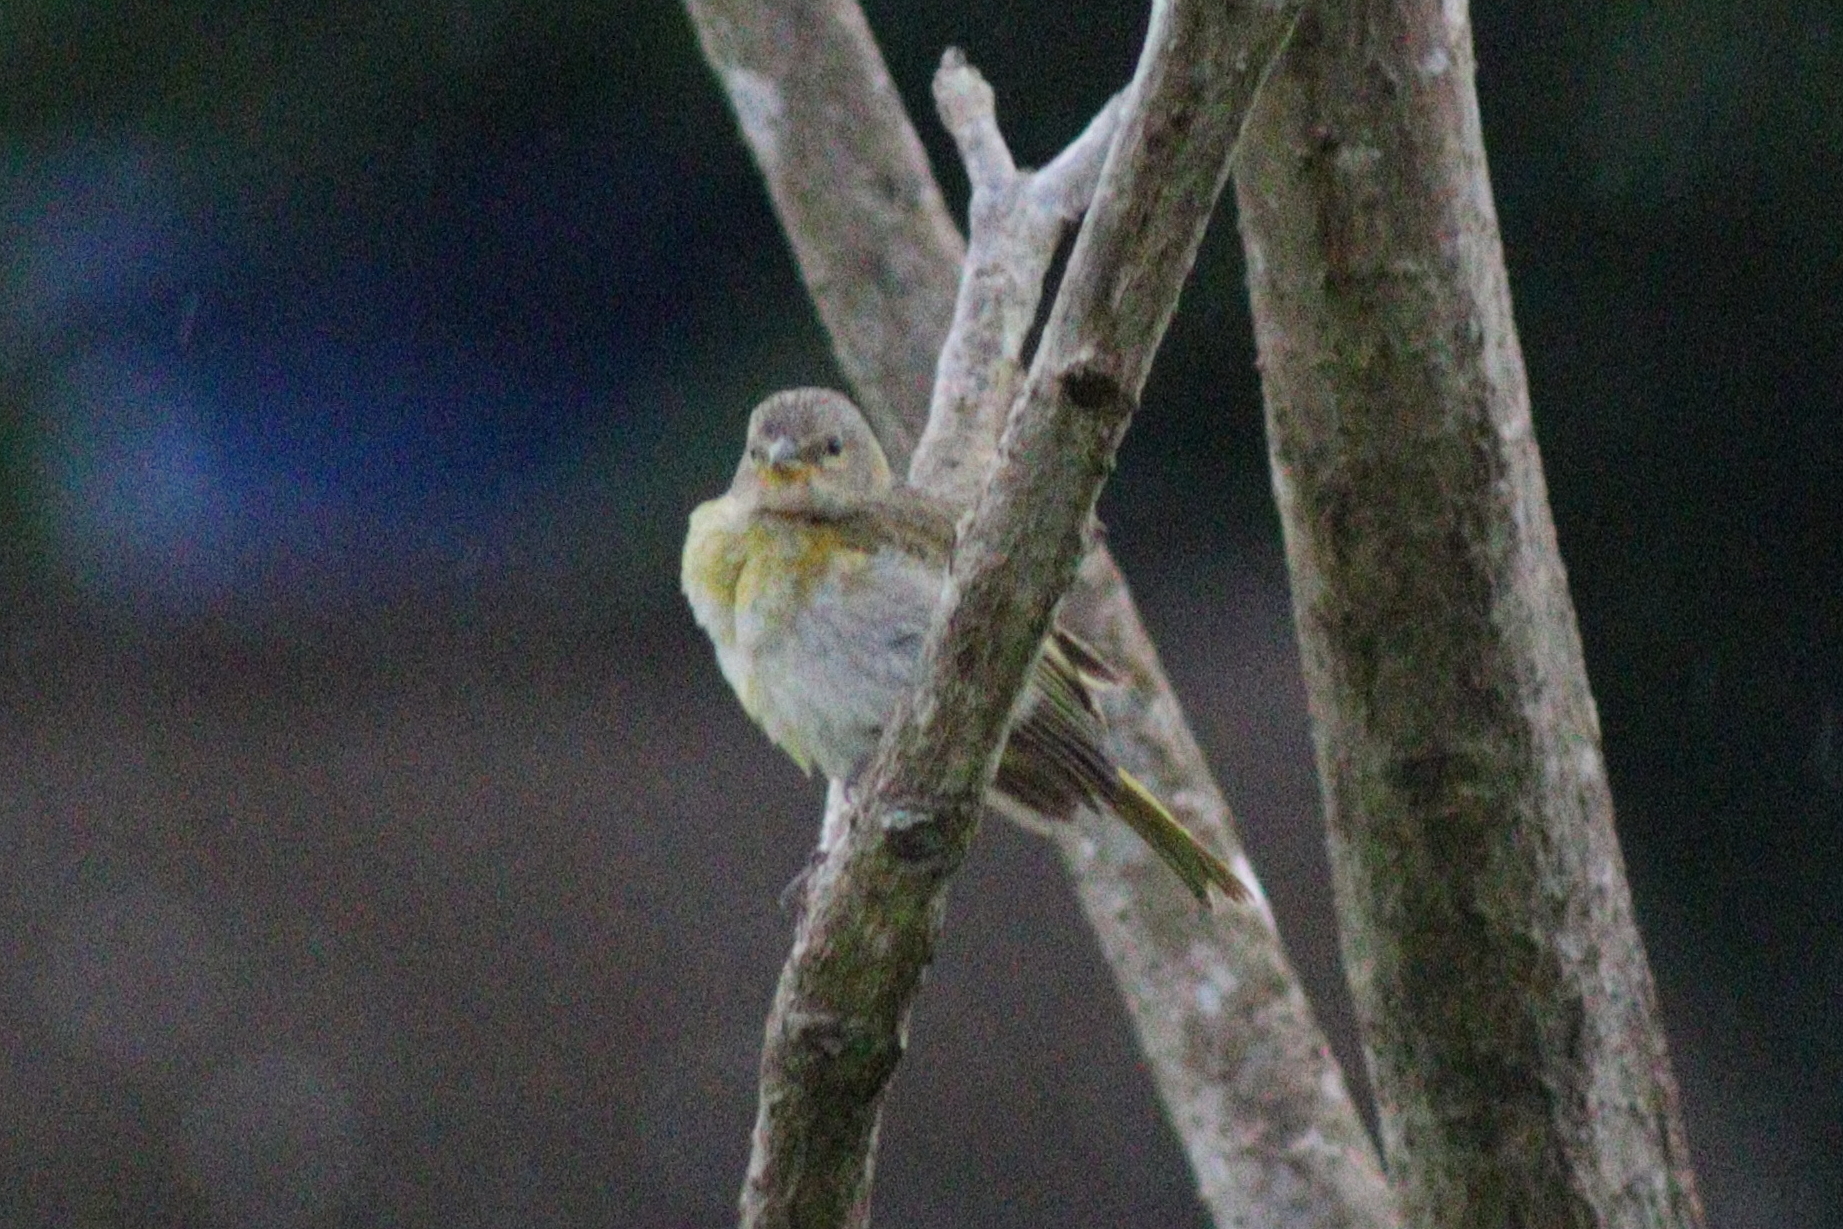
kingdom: Animalia
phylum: Chordata
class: Aves
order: Passeriformes
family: Thraupidae
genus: Sicalis
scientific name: Sicalis flaveola
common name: Saffron finch
